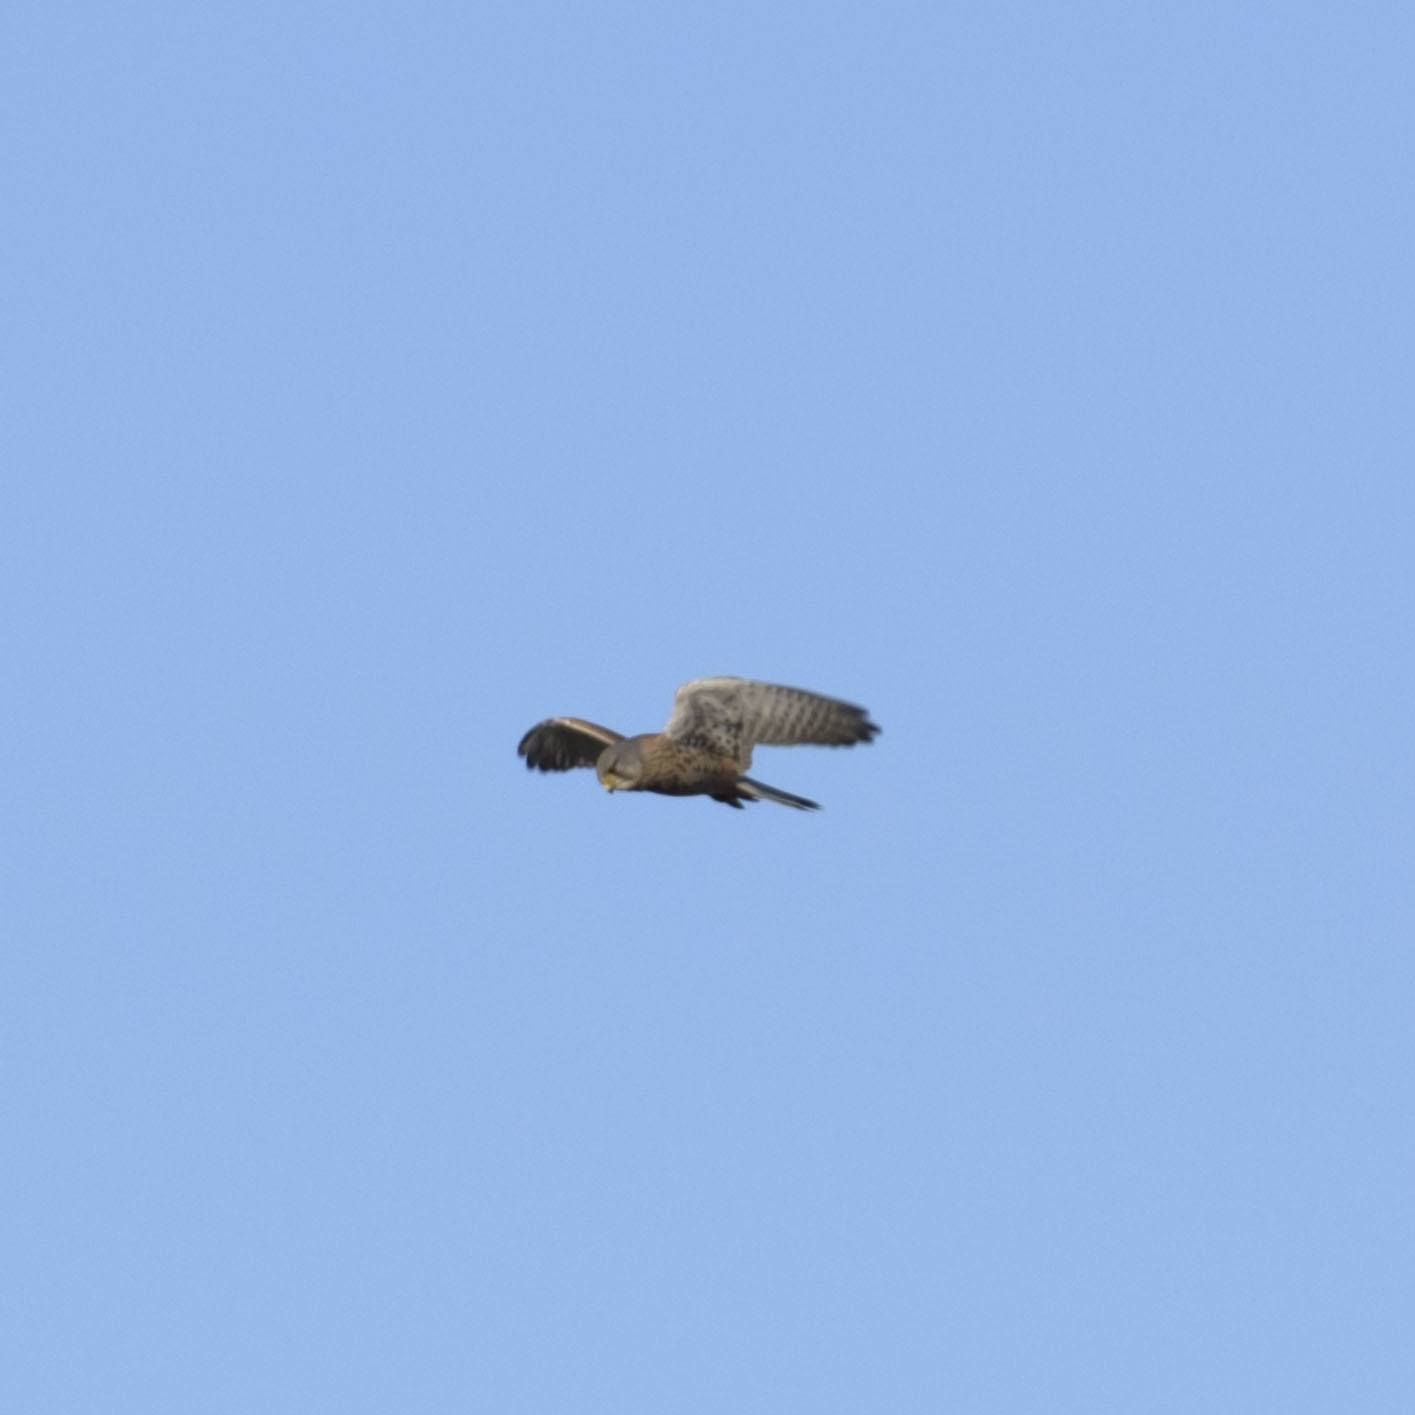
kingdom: Animalia
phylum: Chordata
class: Aves
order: Falconiformes
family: Falconidae
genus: Falco
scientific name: Falco tinnunculus
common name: Common kestrel
